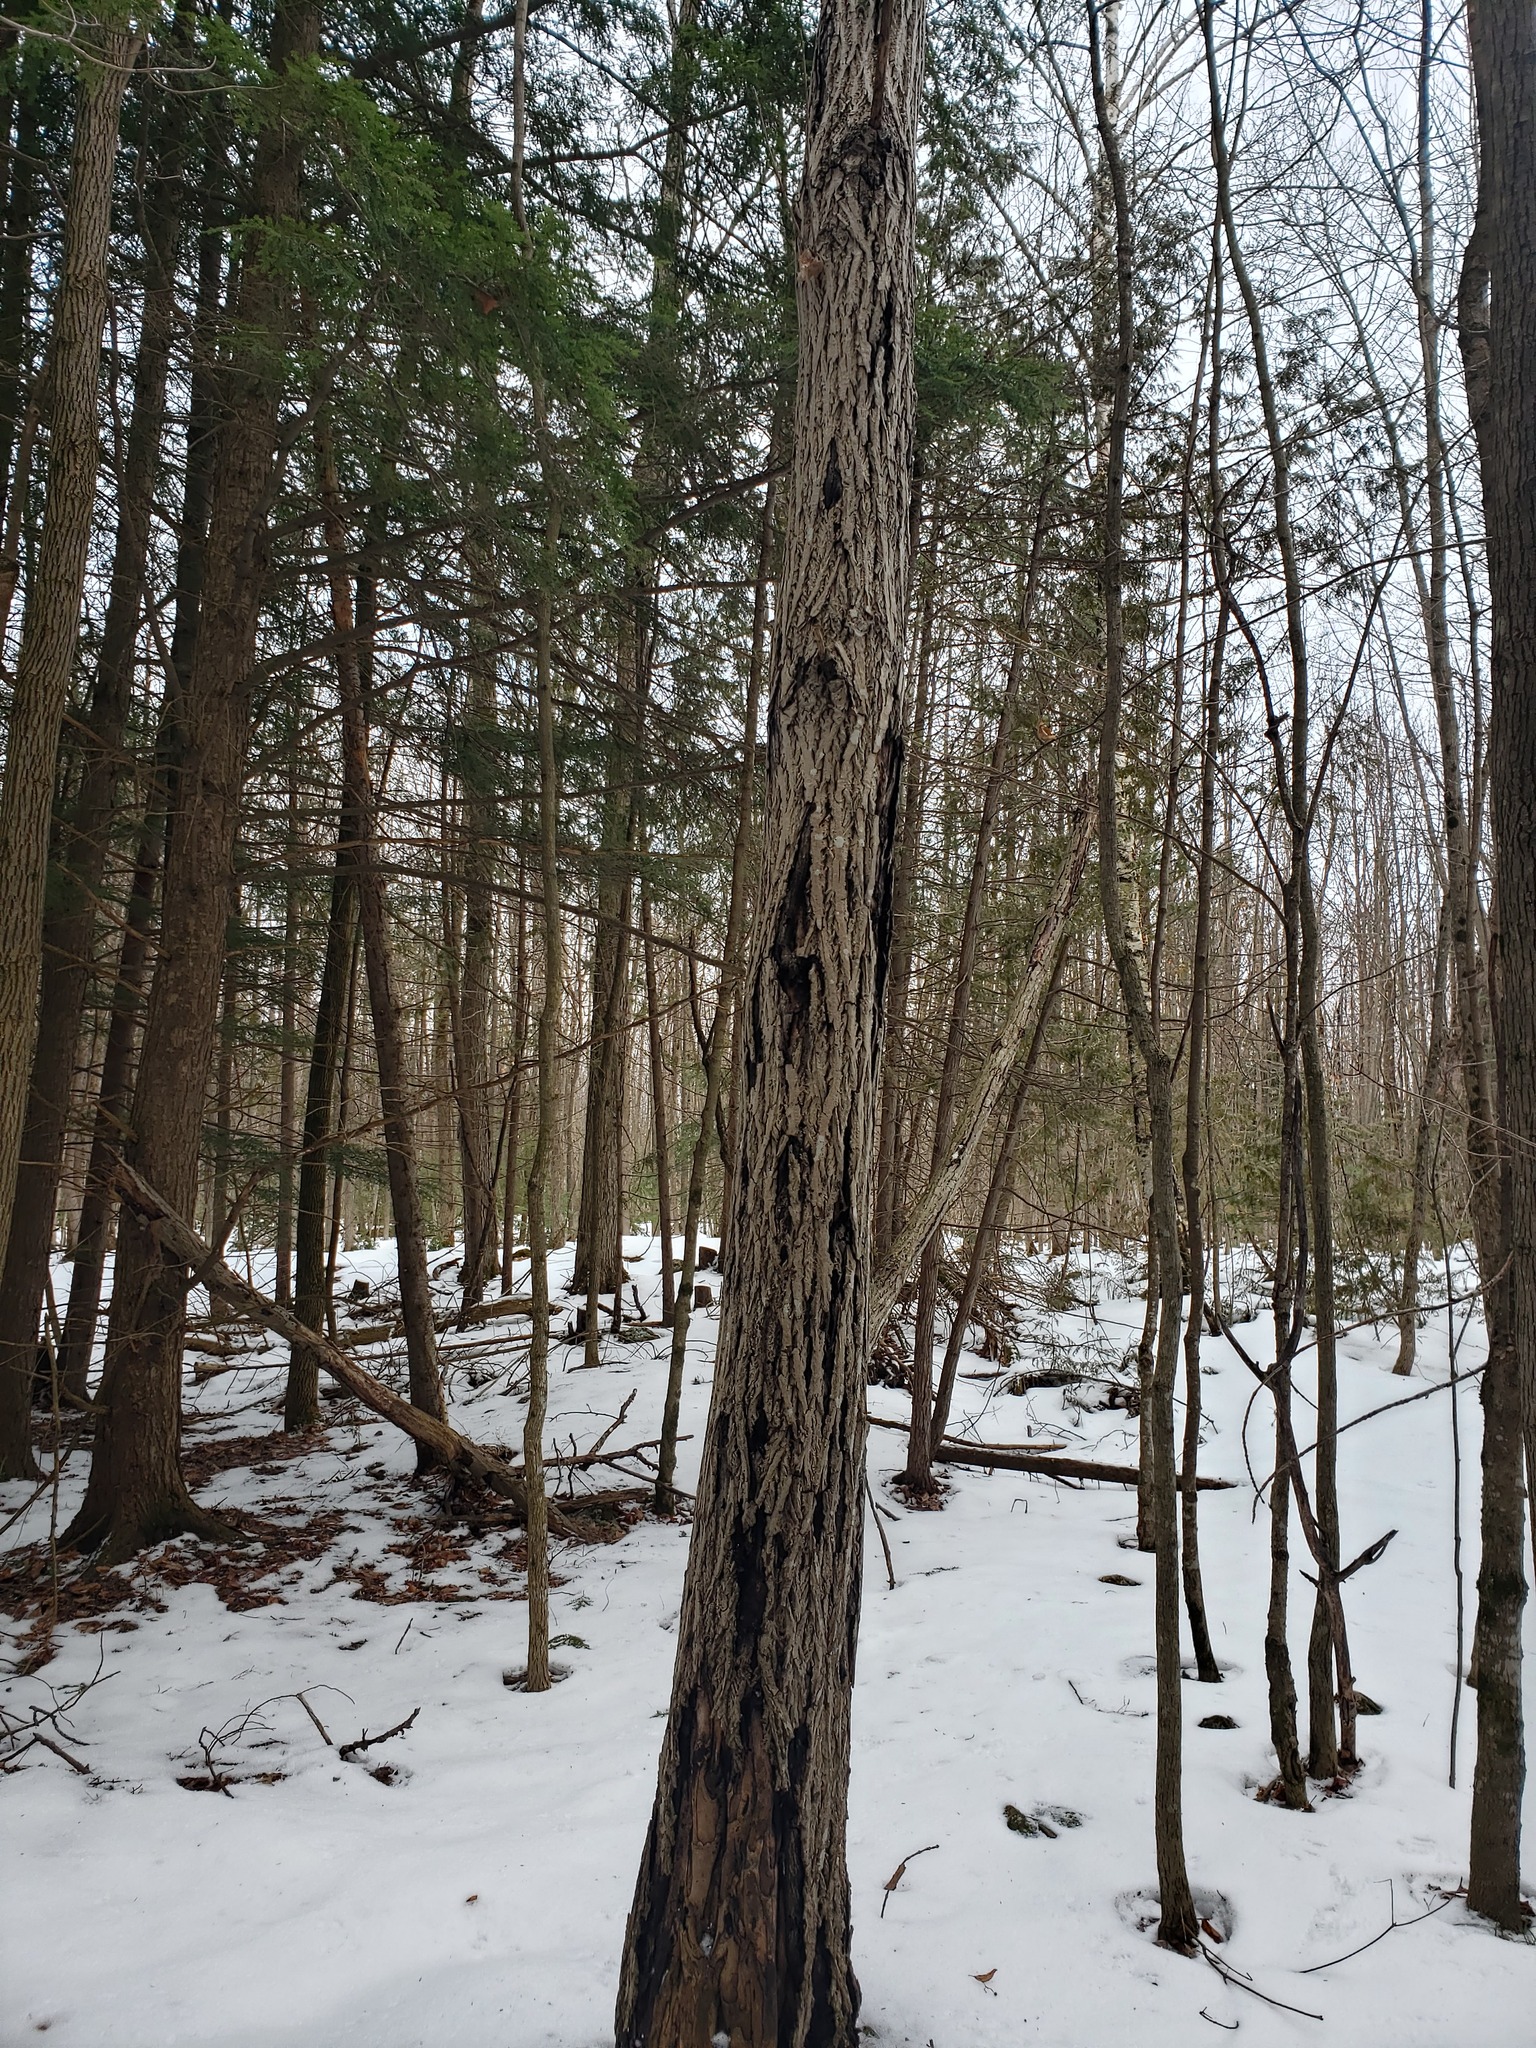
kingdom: Plantae
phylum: Tracheophyta
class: Magnoliopsida
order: Fagales
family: Juglandaceae
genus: Juglans
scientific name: Juglans cinerea
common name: Butternut
